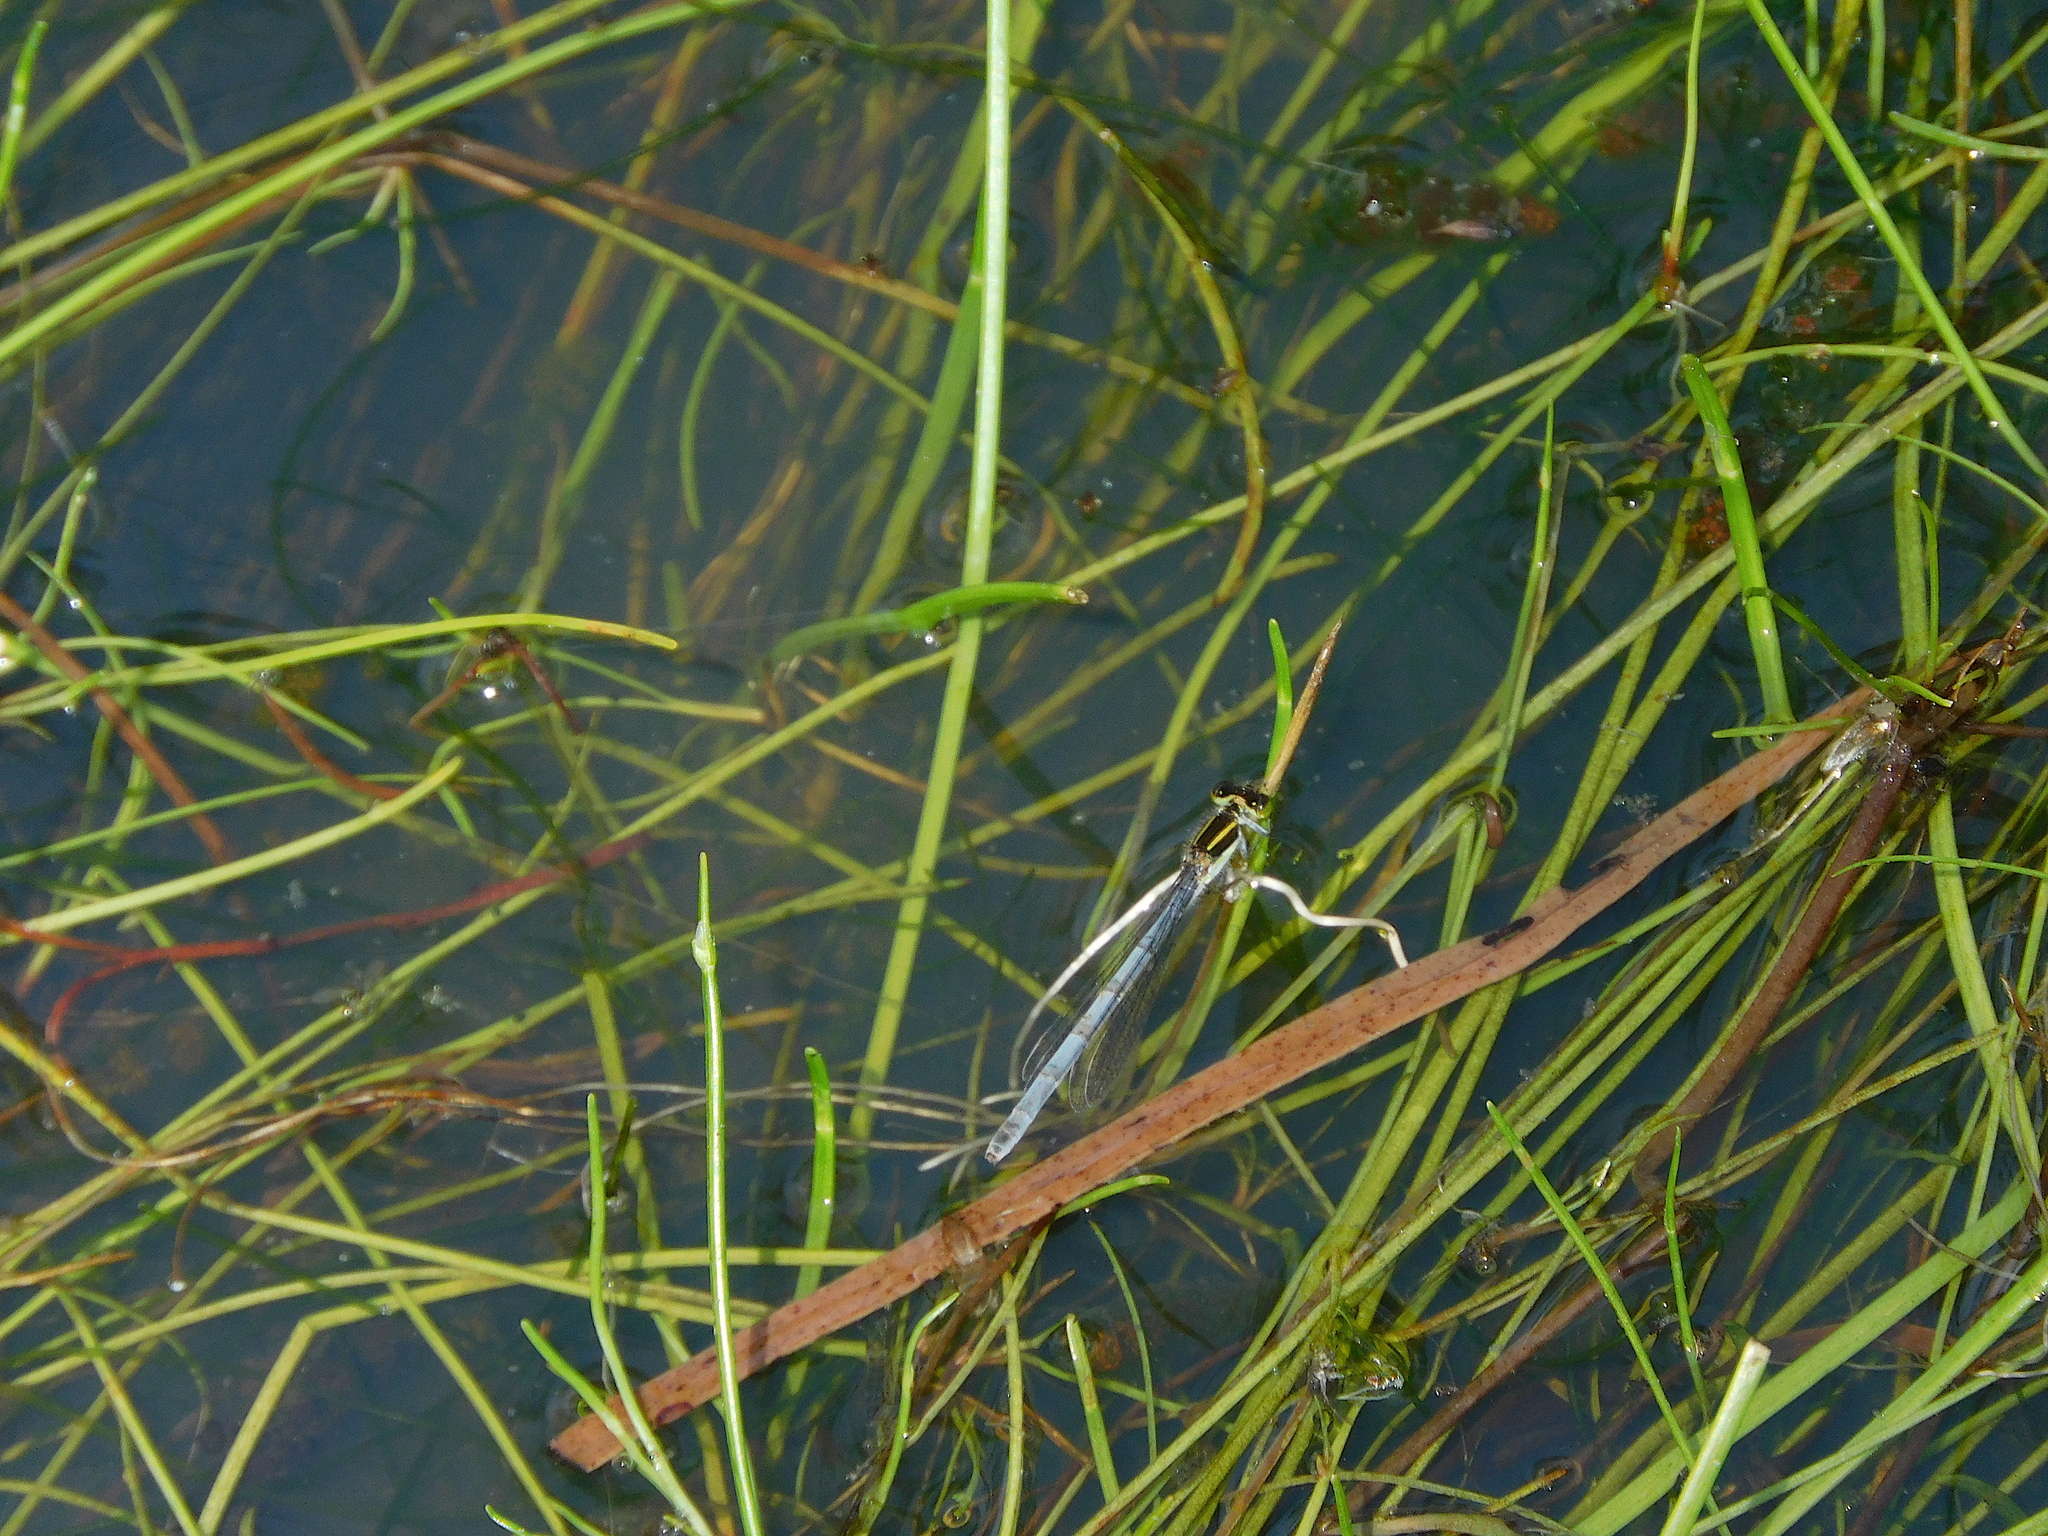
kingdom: Animalia
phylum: Arthropoda
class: Insecta
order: Odonata
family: Coenagrionidae
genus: Ischnura
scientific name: Ischnura aurora
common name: Gossamer damselfly
